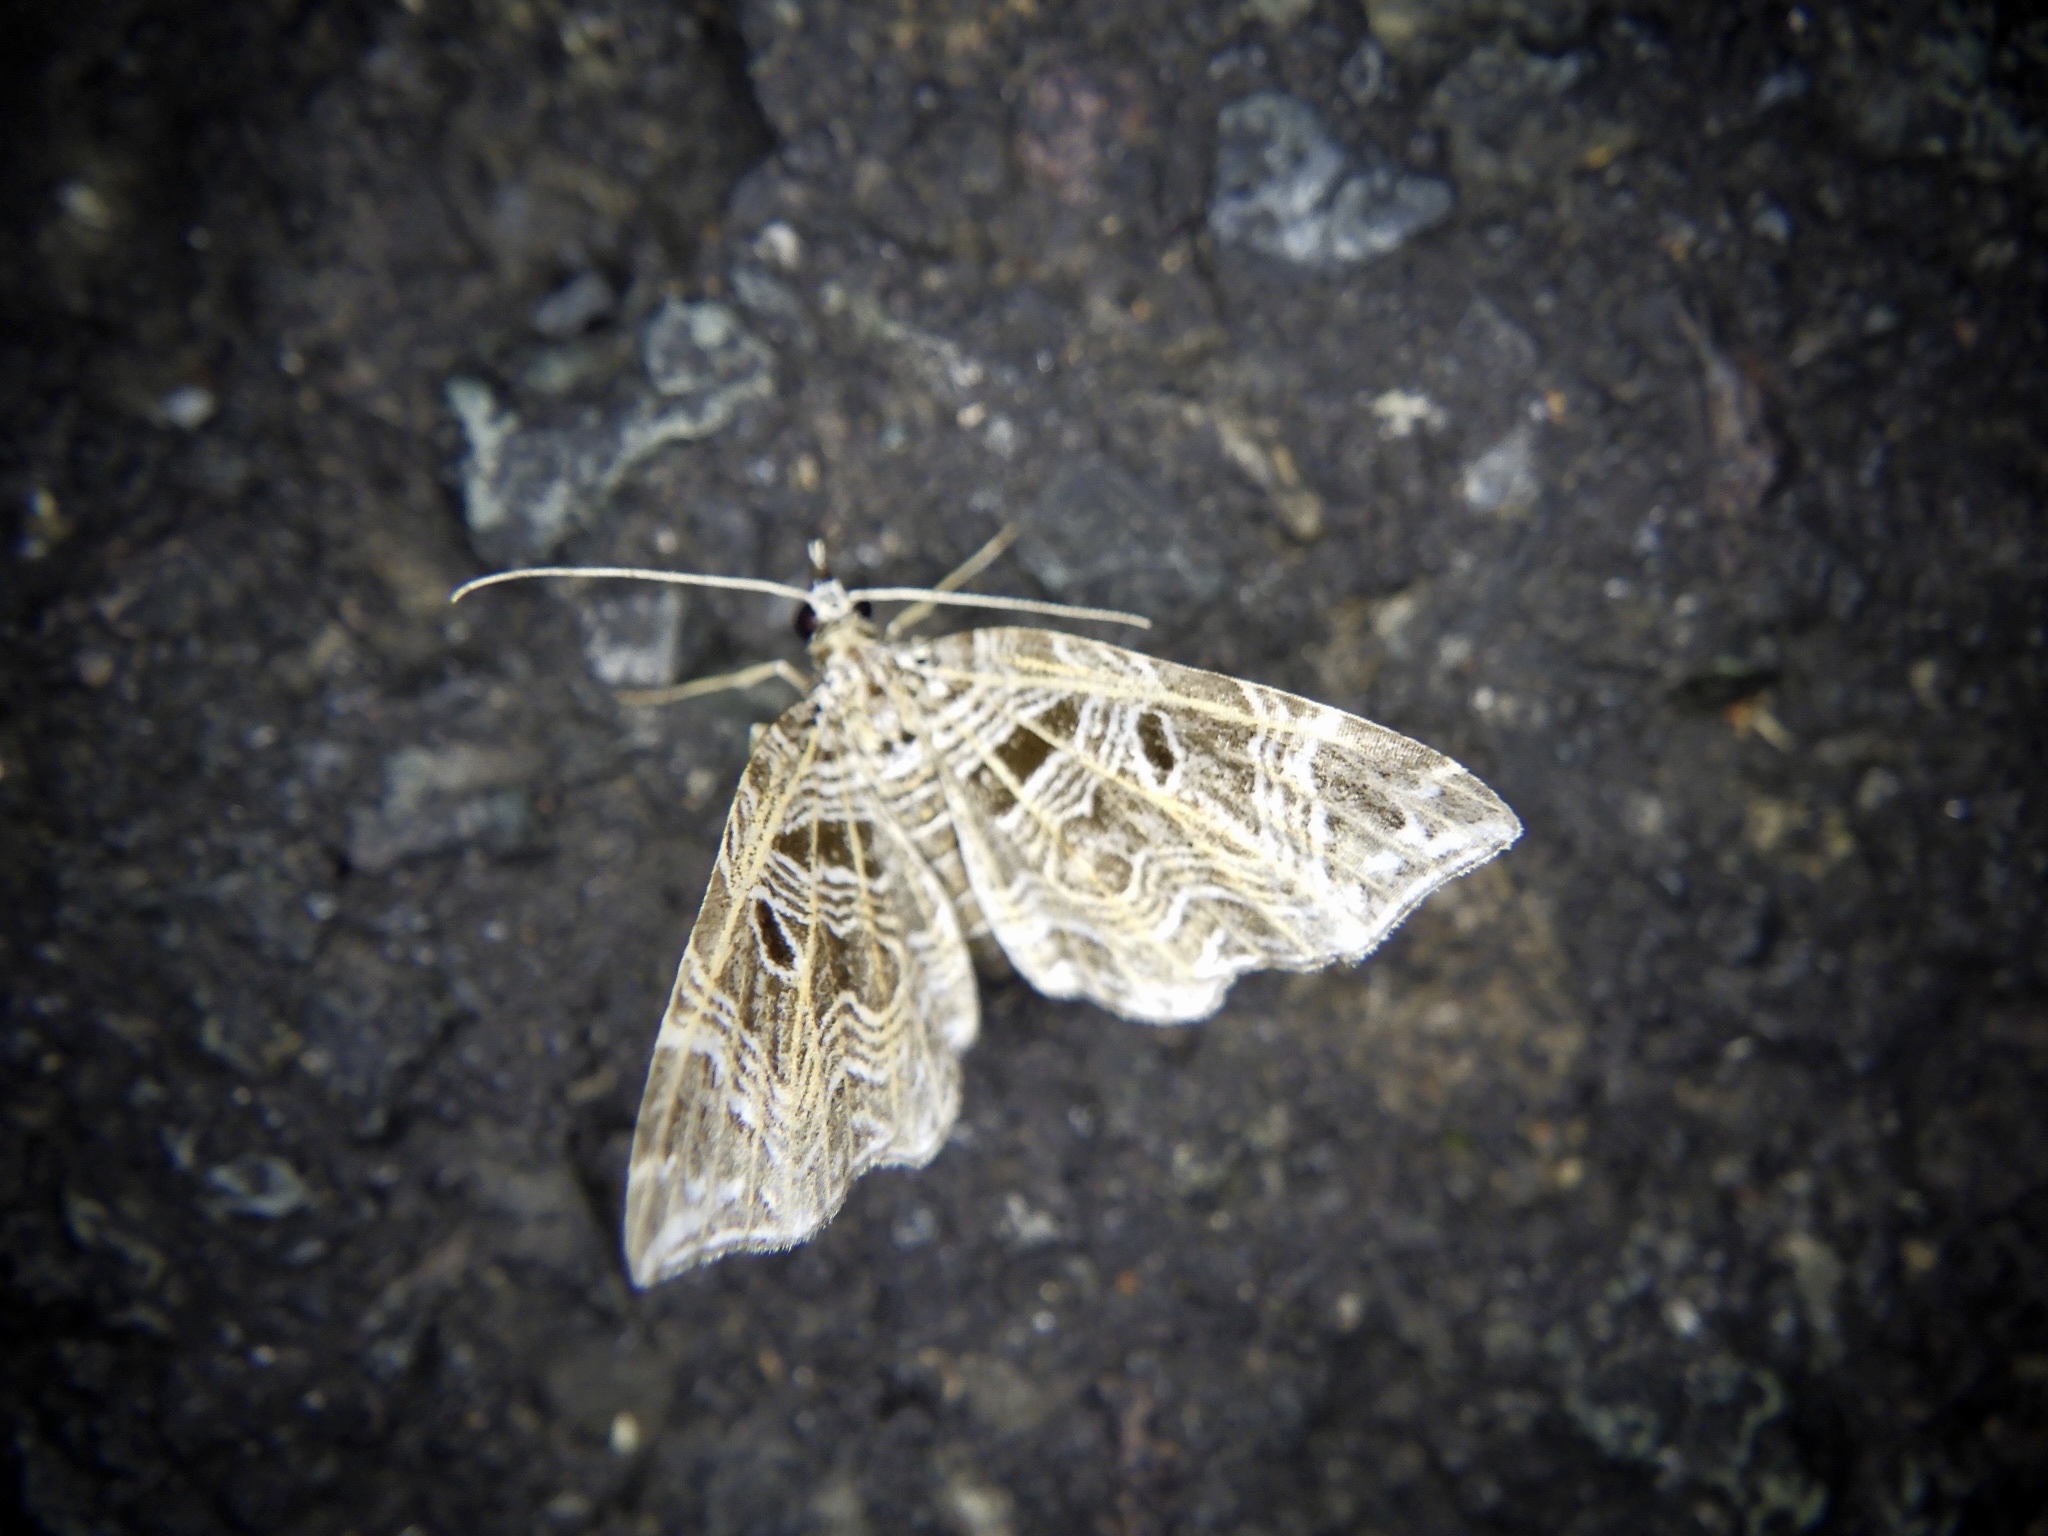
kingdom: Animalia
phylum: Arthropoda
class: Insecta
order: Lepidoptera
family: Geometridae
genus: Lobogonodes
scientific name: Lobogonodes erectaria
